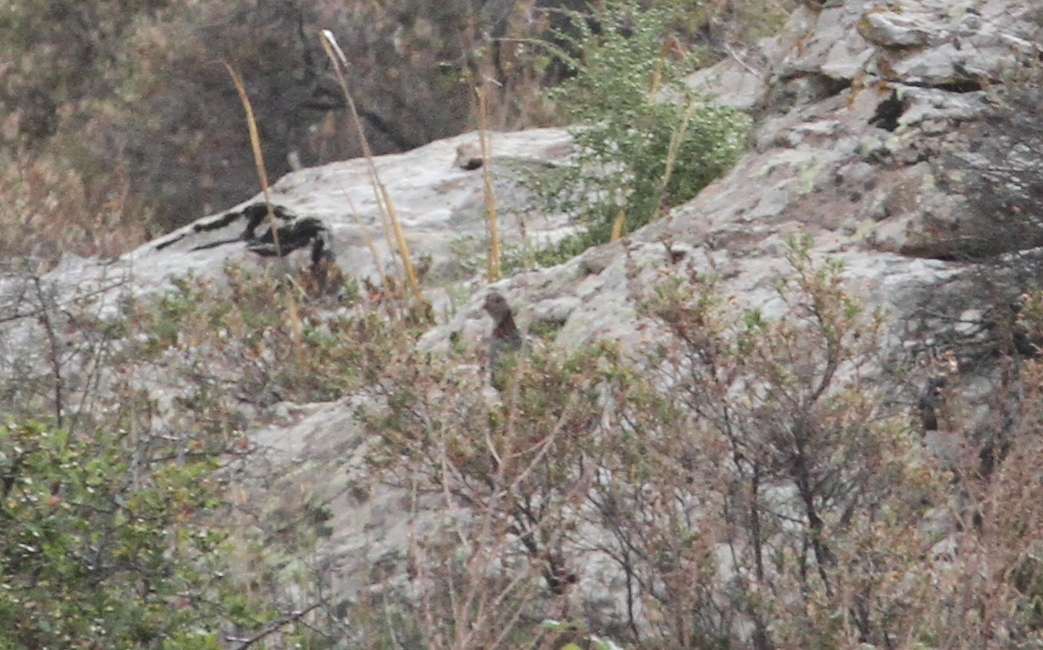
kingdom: Animalia
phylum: Chordata
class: Aves
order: Galliformes
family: Phasianidae
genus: Alectoris
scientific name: Alectoris barbara
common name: Barbary partridge
